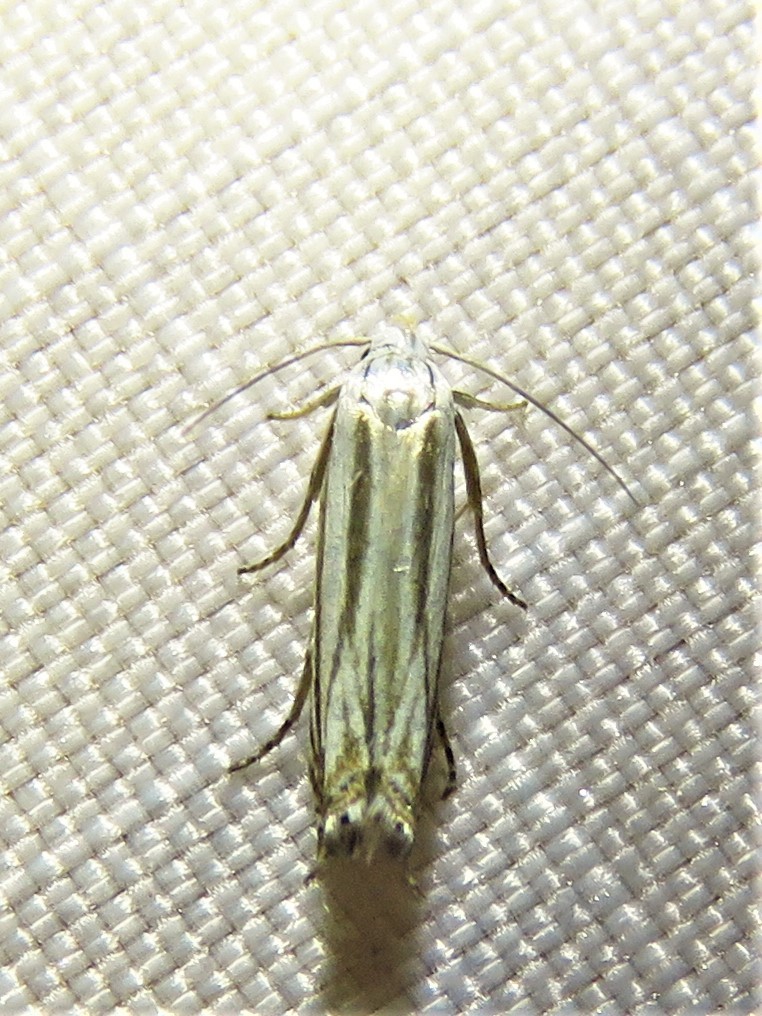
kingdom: Animalia
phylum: Arthropoda
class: Insecta
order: Lepidoptera
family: Gelechiidae
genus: Polyhymno
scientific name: Polyhymno luteostrigella
